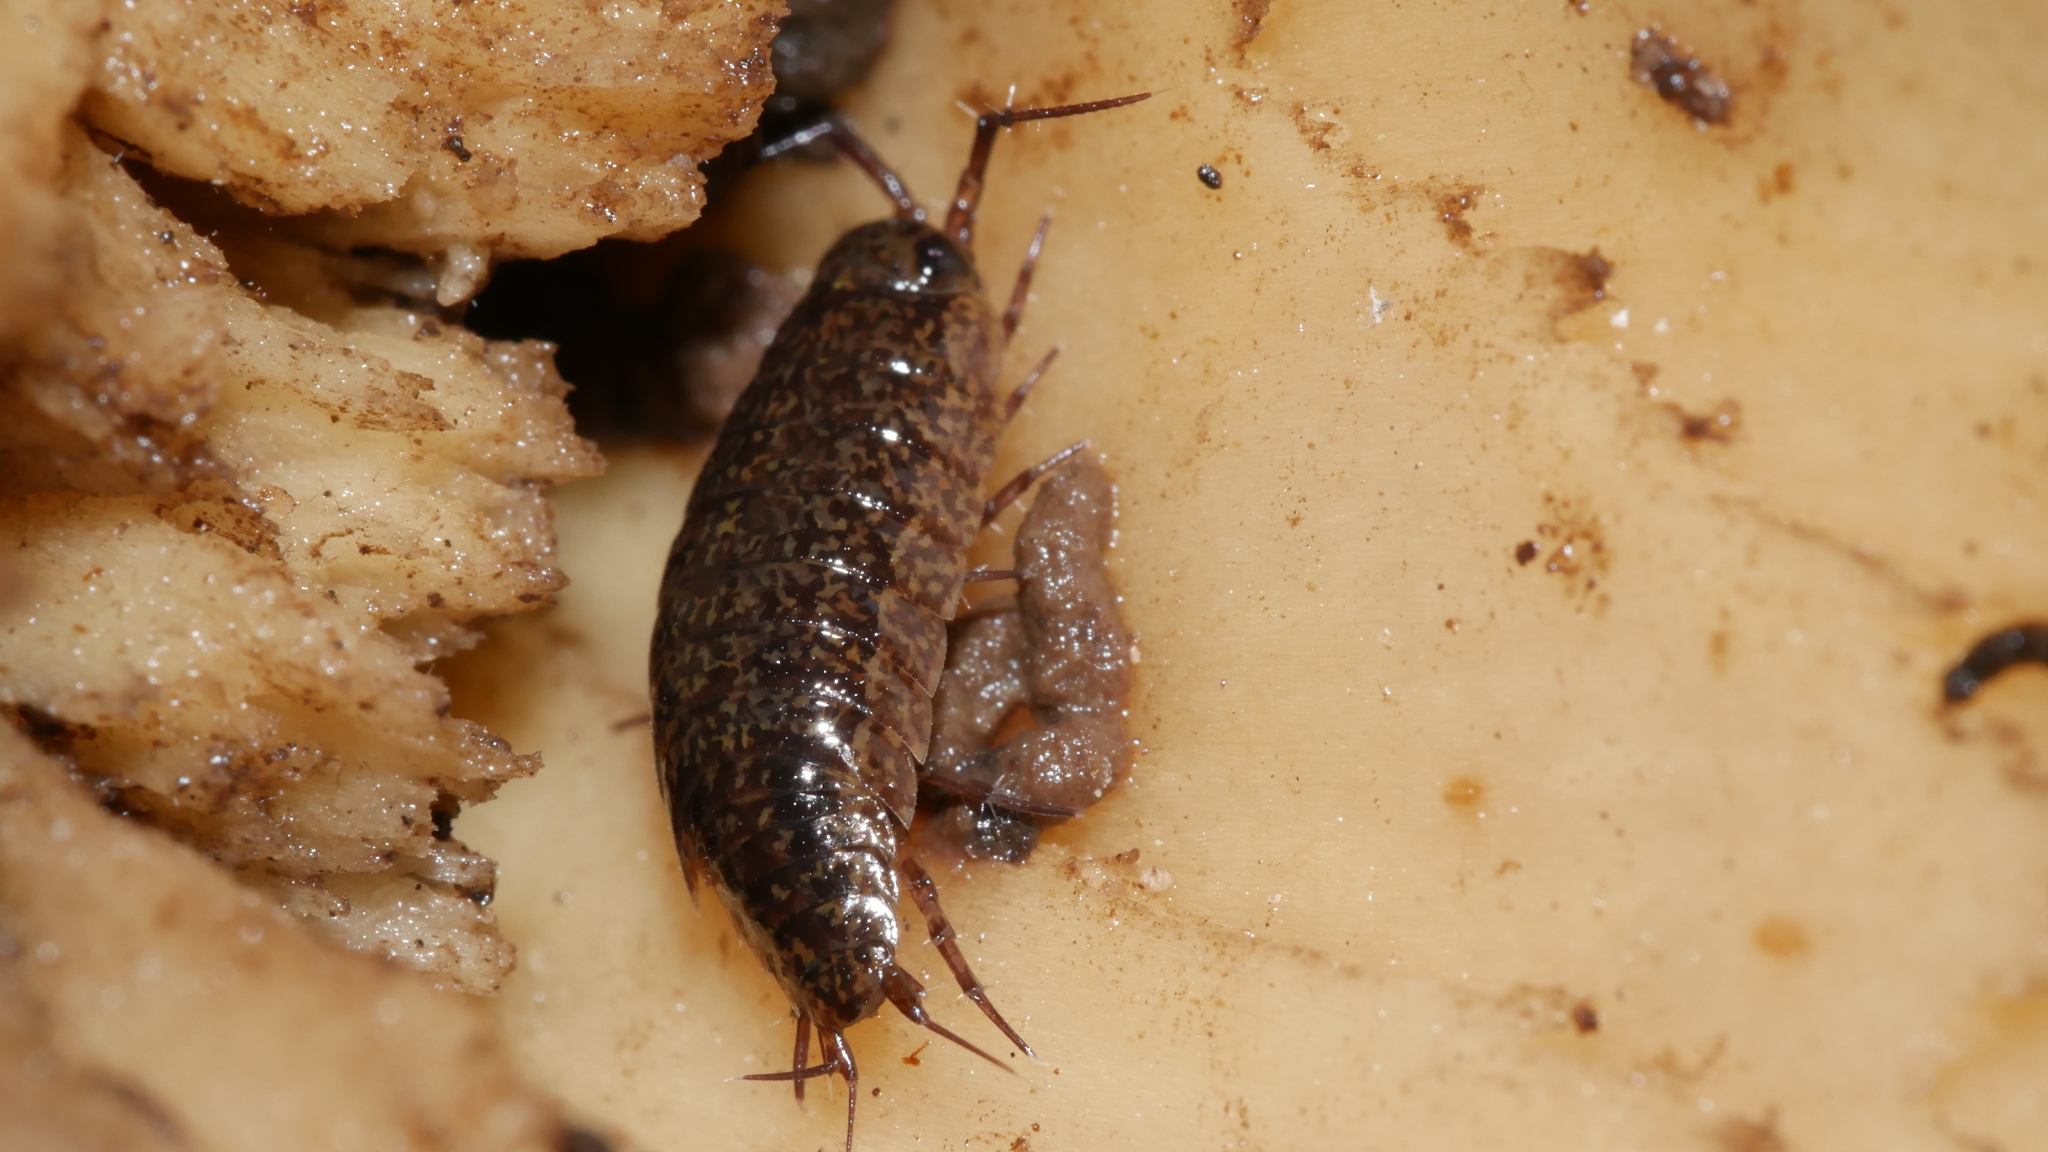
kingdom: Animalia
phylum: Arthropoda
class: Malacostraca
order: Isopoda
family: Ligiidae
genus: Ligidium
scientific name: Ligidium elrodii
